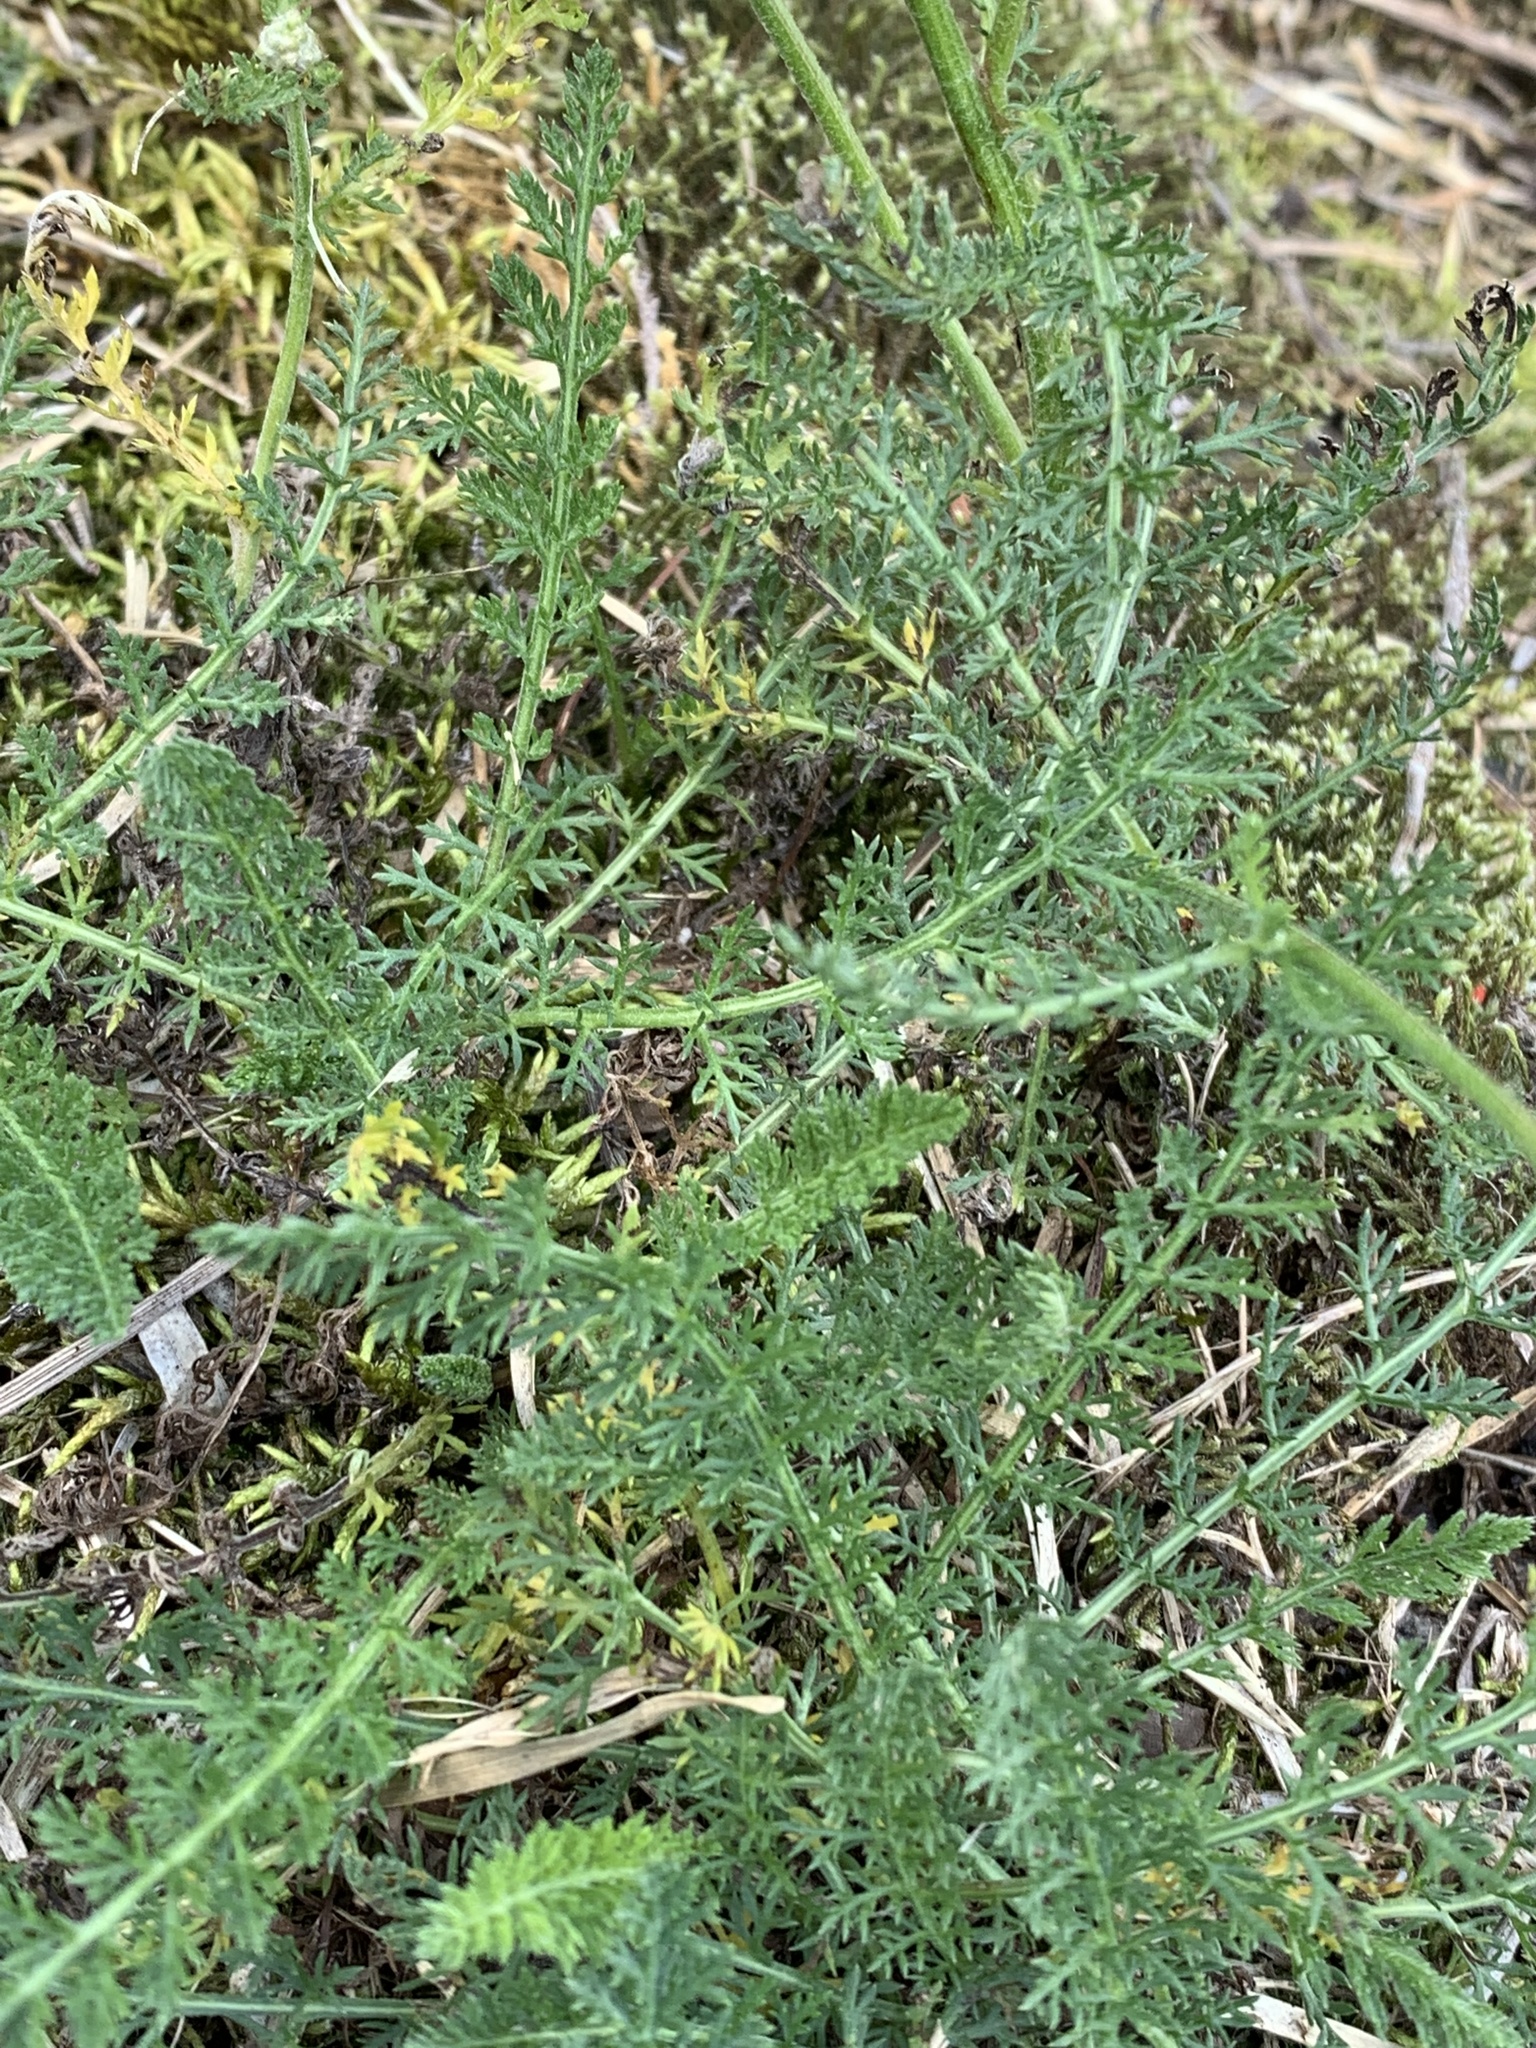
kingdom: Plantae
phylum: Tracheophyta
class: Magnoliopsida
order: Asterales
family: Asteraceae
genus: Achillea
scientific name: Achillea millefolium
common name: Yarrow
